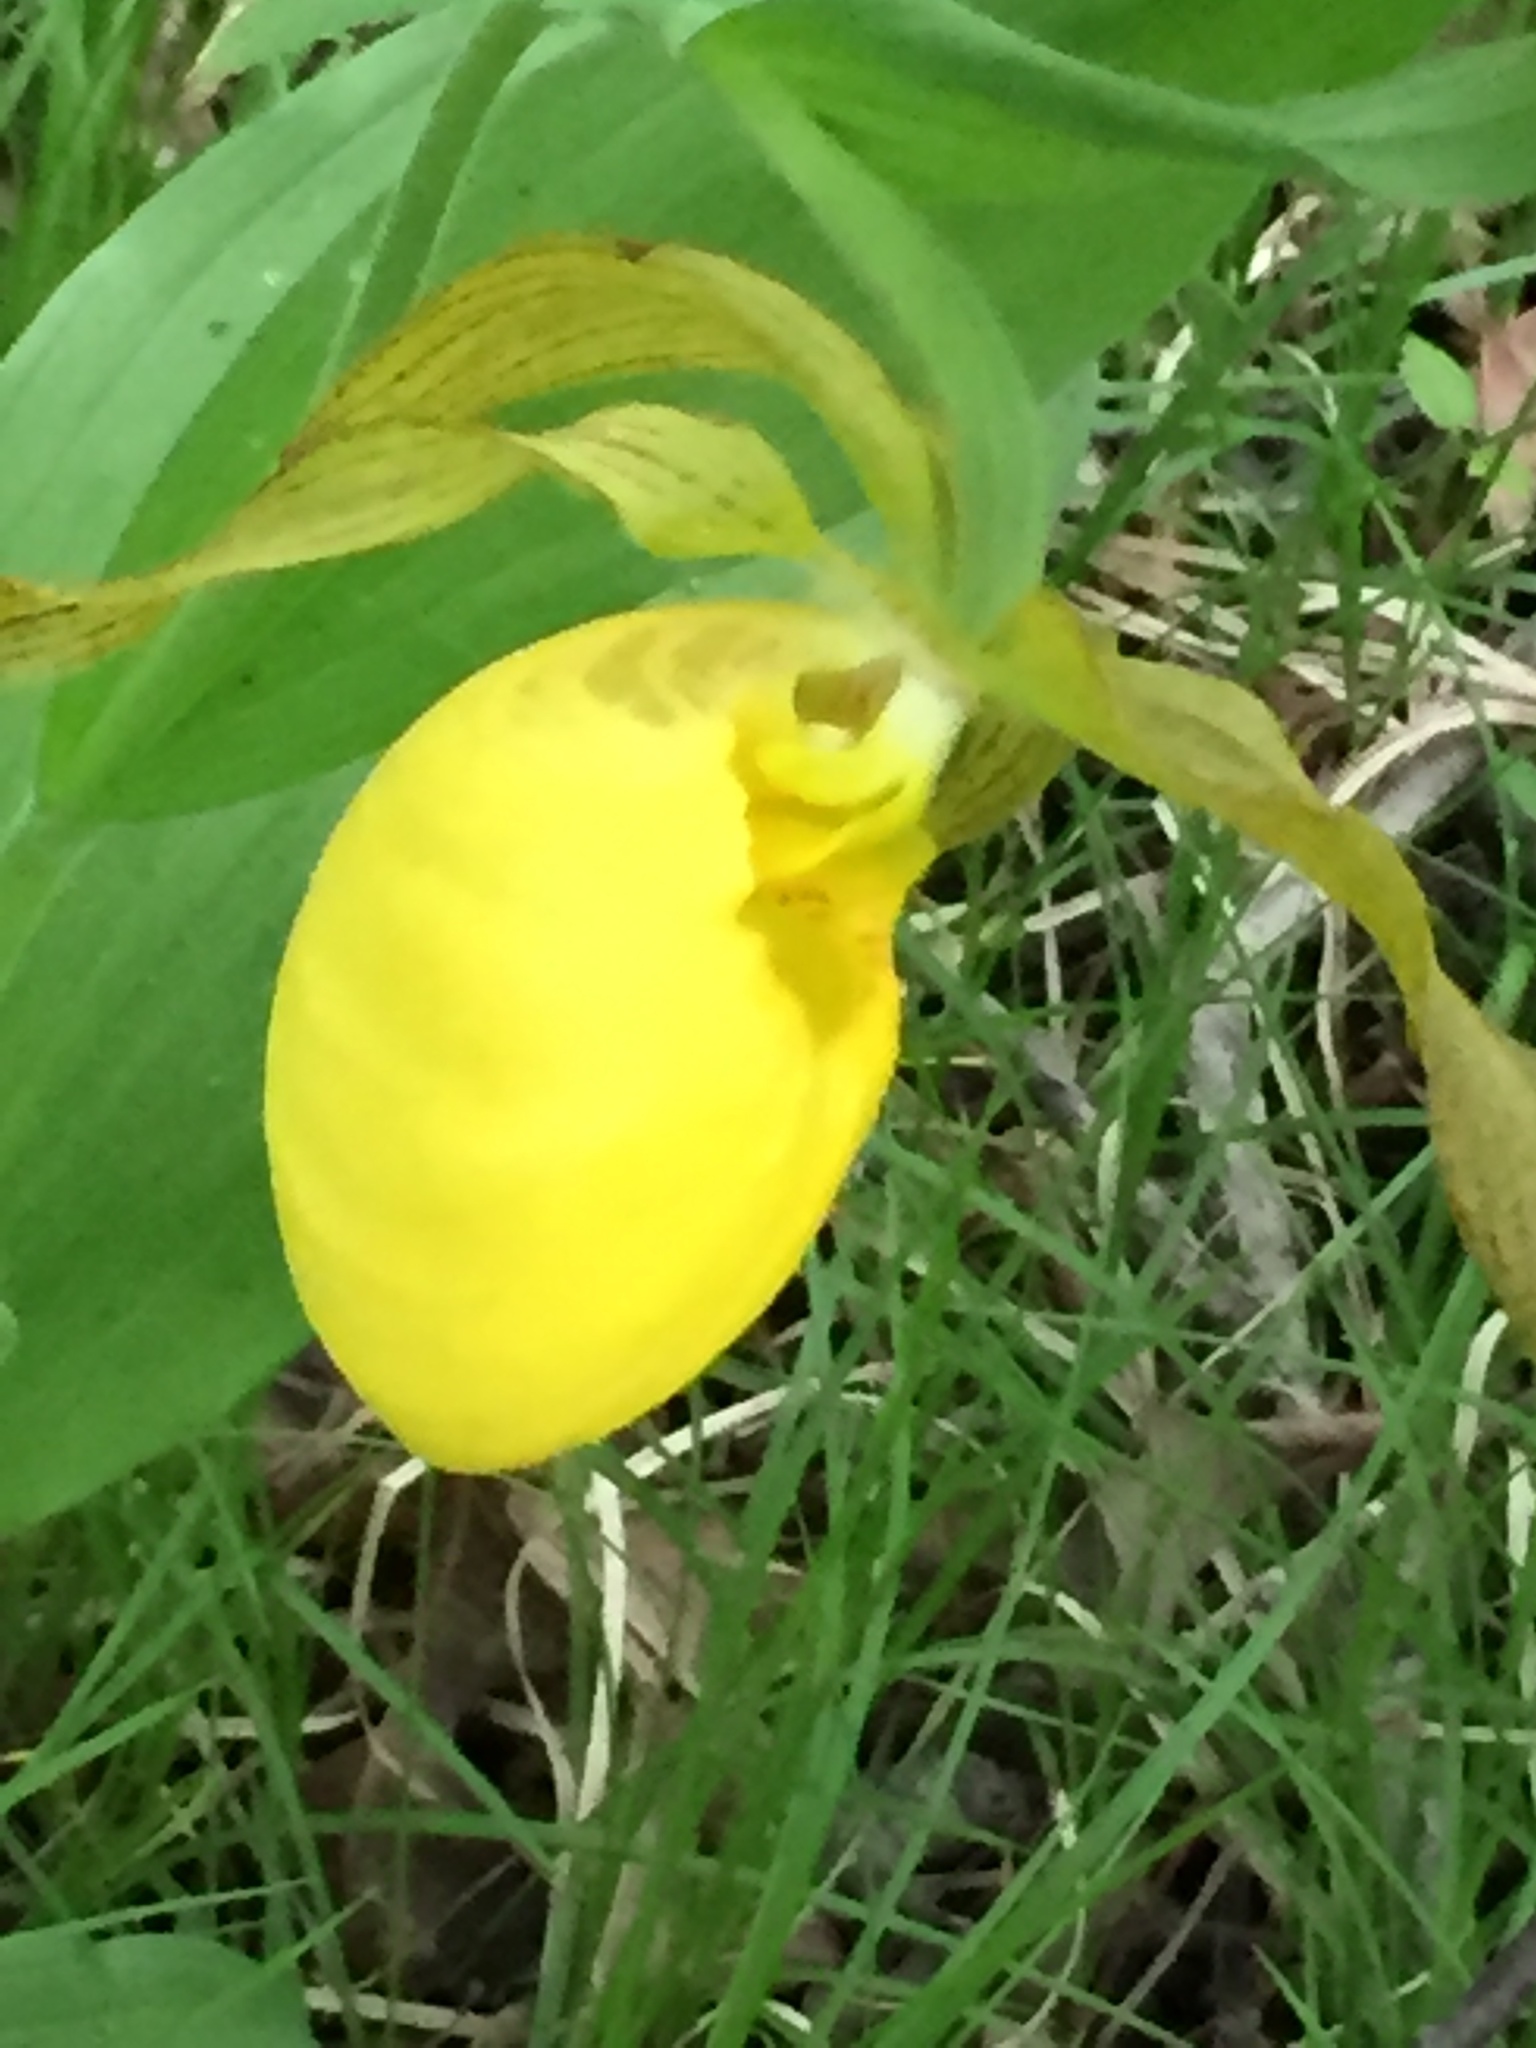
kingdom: Plantae
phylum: Tracheophyta
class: Liliopsida
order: Asparagales
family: Orchidaceae
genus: Cypripedium
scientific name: Cypripedium parviflorum
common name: American yellow lady's-slipper
